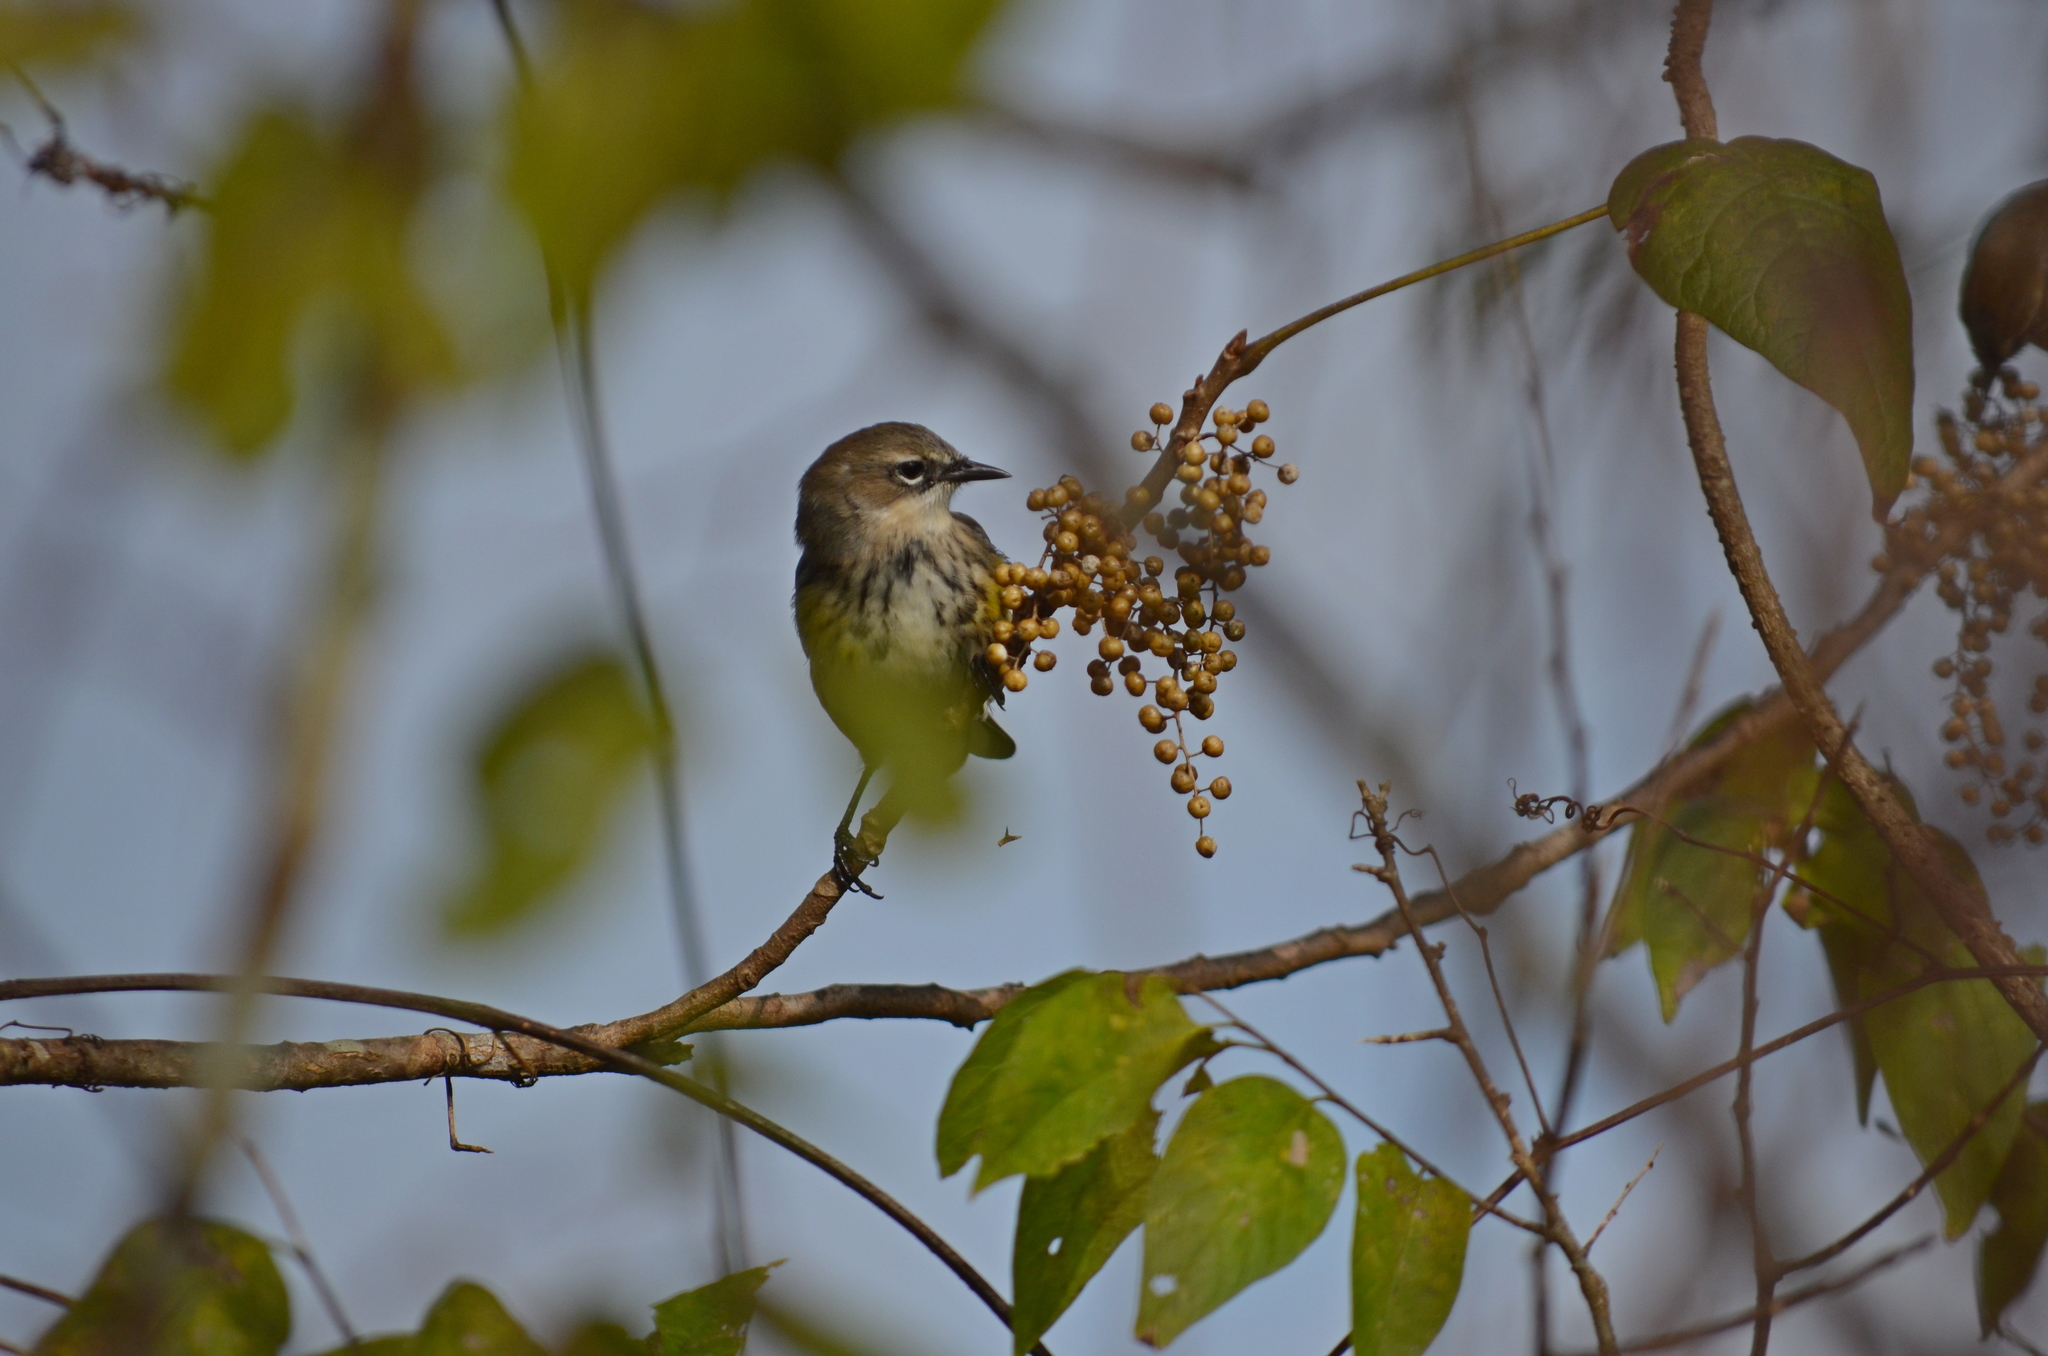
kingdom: Animalia
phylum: Chordata
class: Aves
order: Passeriformes
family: Parulidae
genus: Setophaga
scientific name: Setophaga coronata
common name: Myrtle warbler
